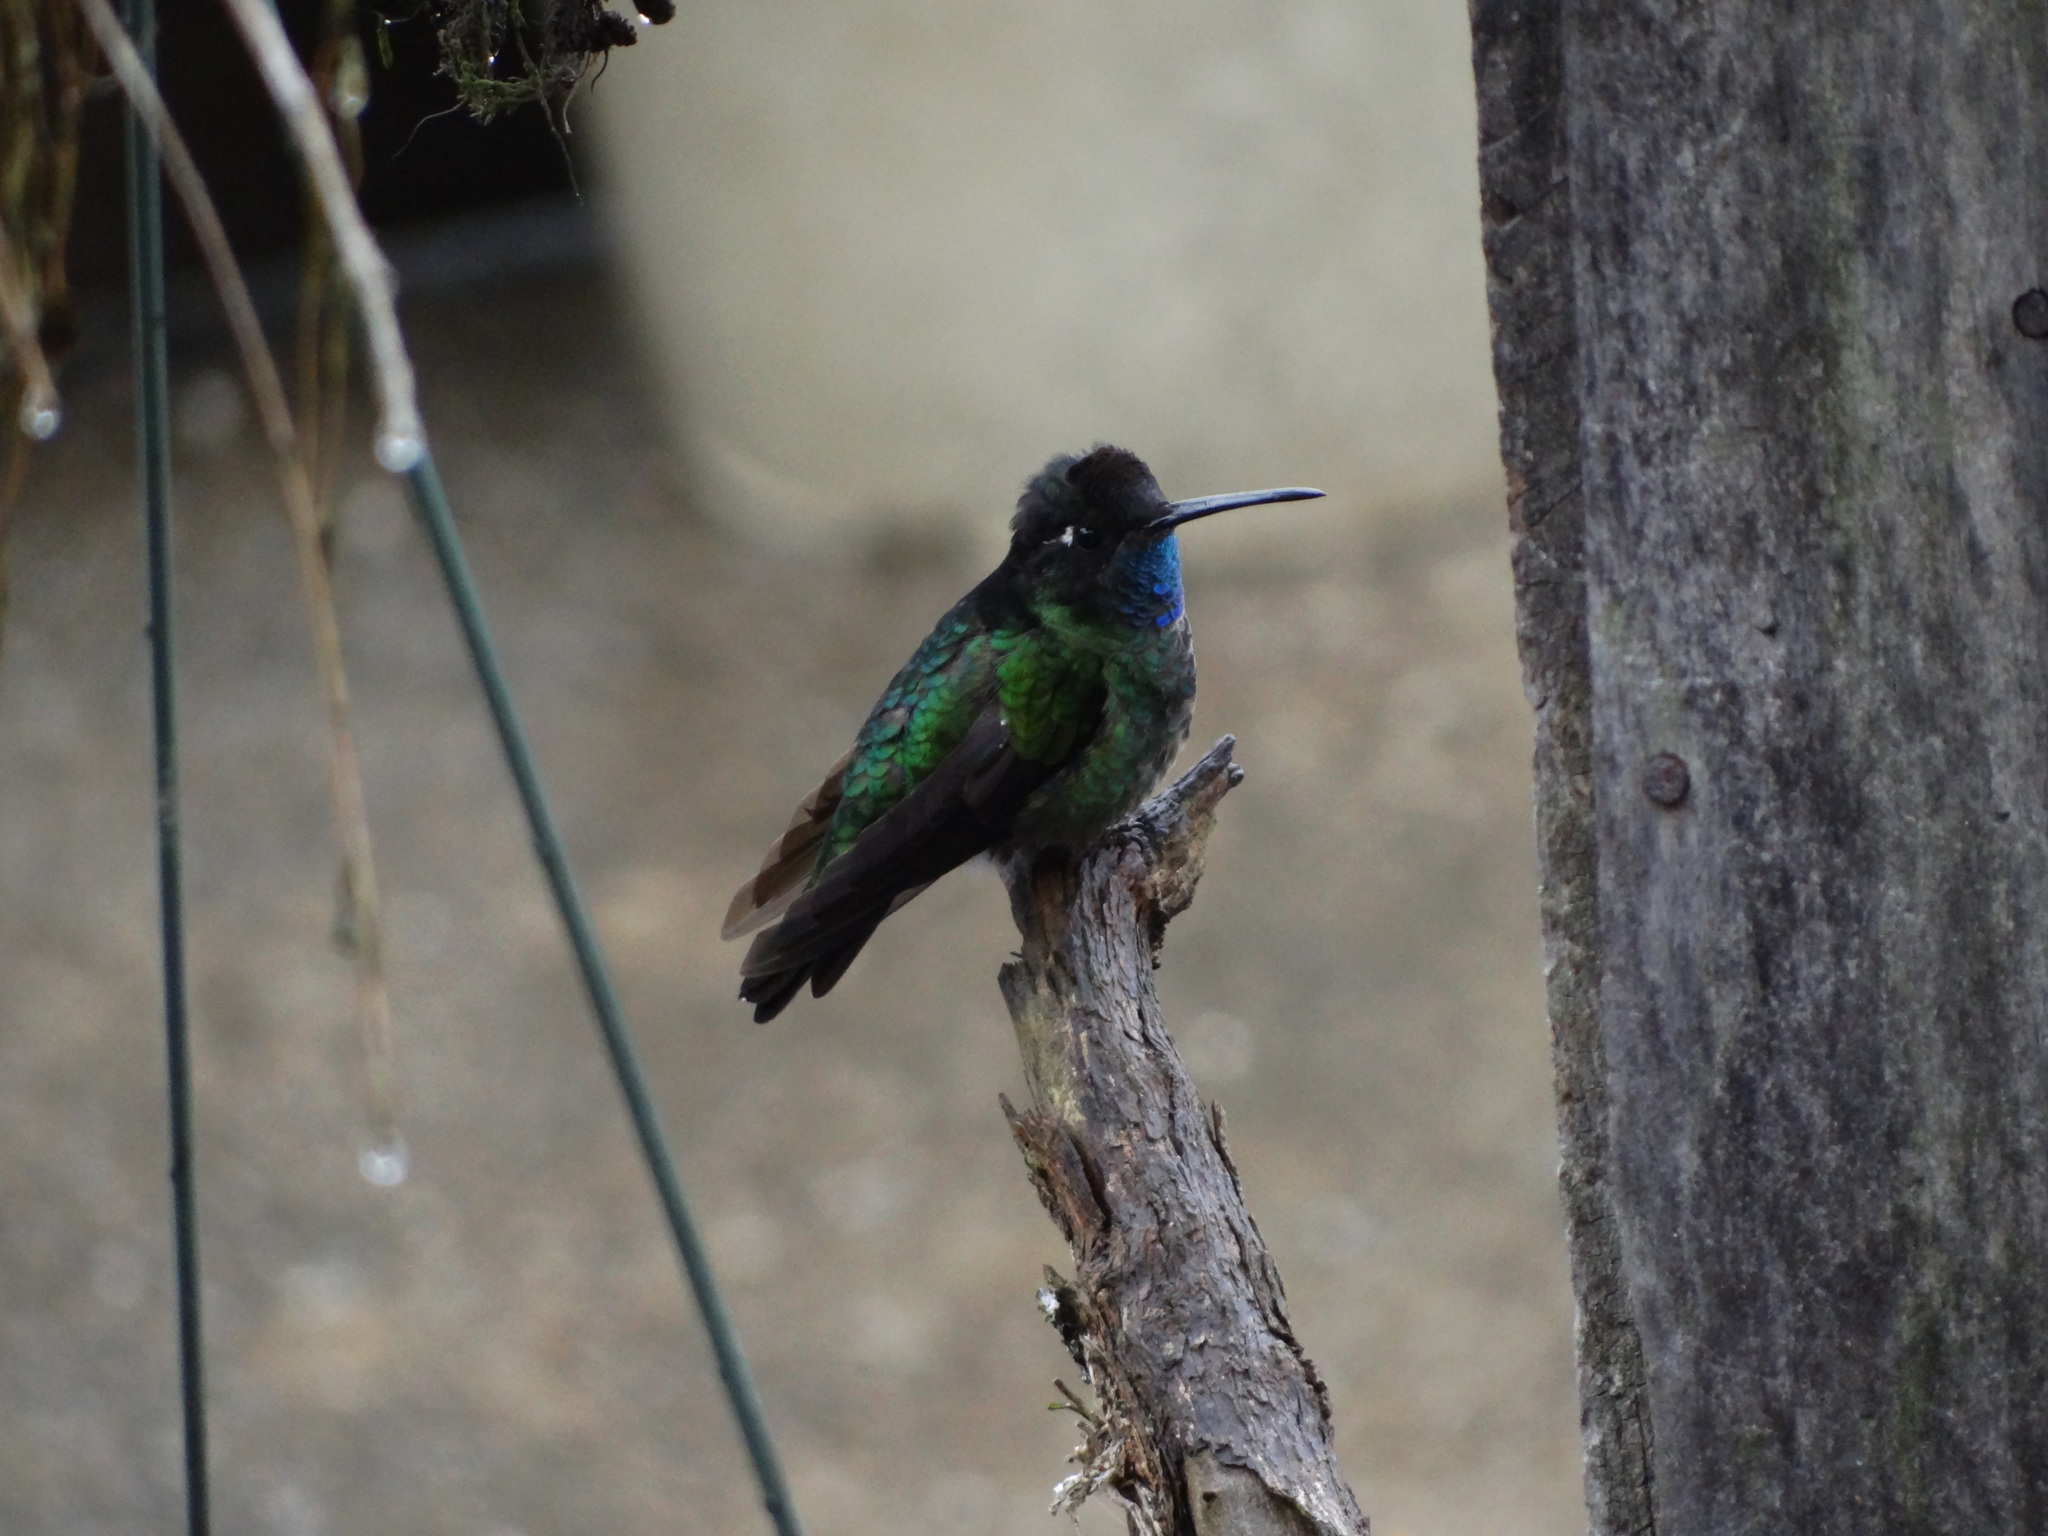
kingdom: Animalia
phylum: Chordata
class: Aves
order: Apodiformes
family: Trochilidae
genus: Eugenes
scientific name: Eugenes spectabilis
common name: Talamanca hummingbird
